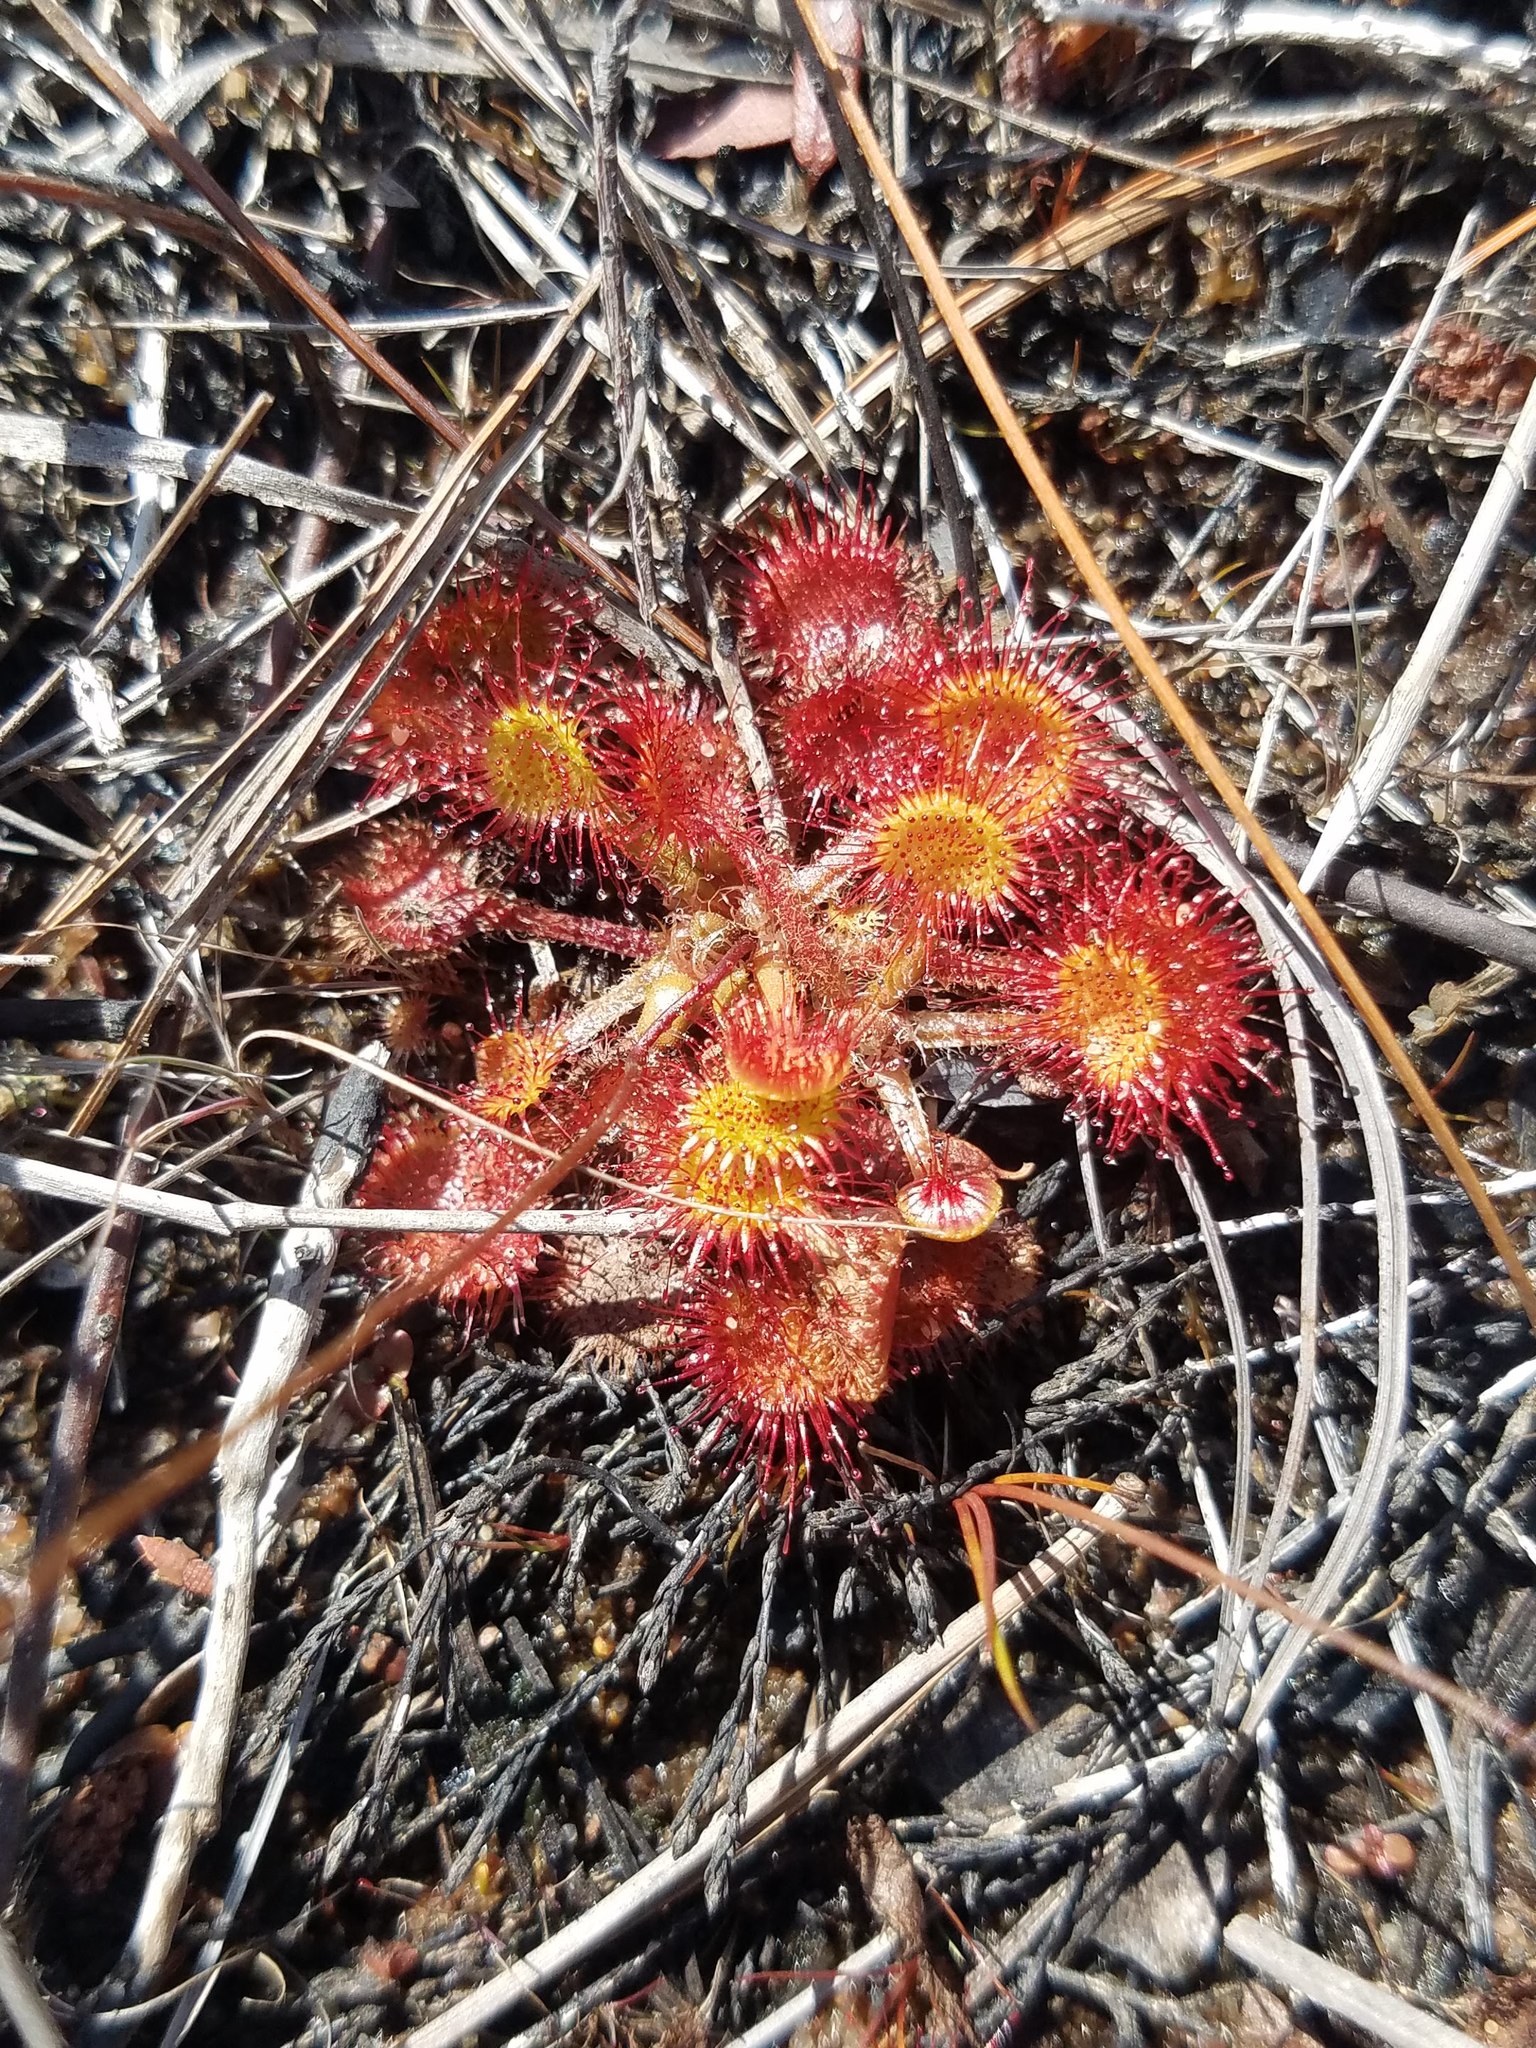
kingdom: Plantae
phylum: Tracheophyta
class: Magnoliopsida
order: Caryophyllales
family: Droseraceae
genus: Drosera
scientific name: Drosera rotundifolia
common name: Round-leaved sundew
